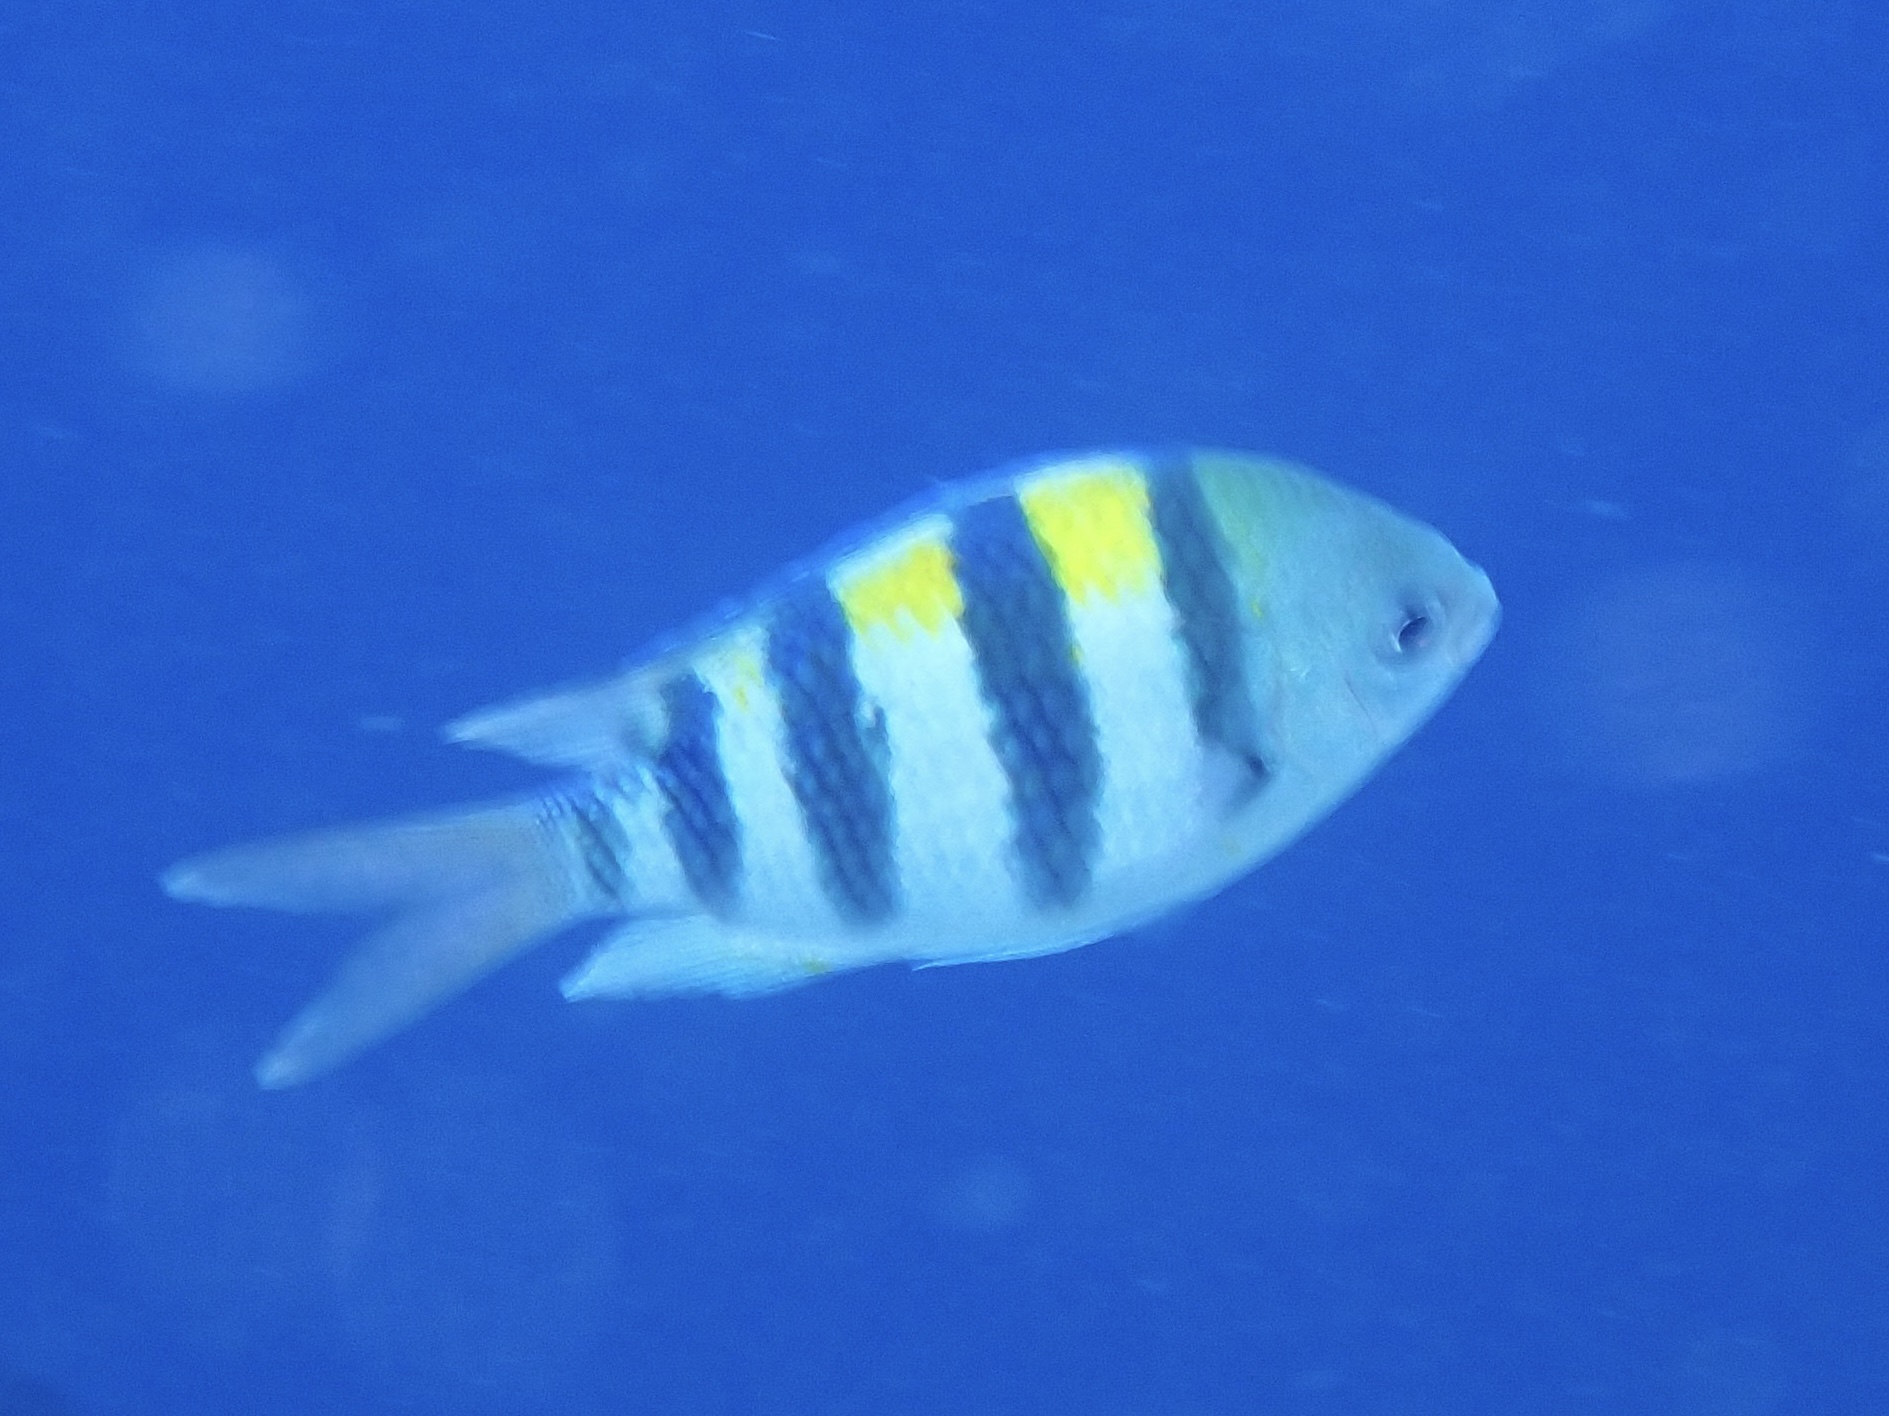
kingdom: Animalia
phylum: Chordata
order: Perciformes
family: Pomacentridae
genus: Abudefduf
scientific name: Abudefduf vaigiensis
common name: Indo-pacific sergeant
